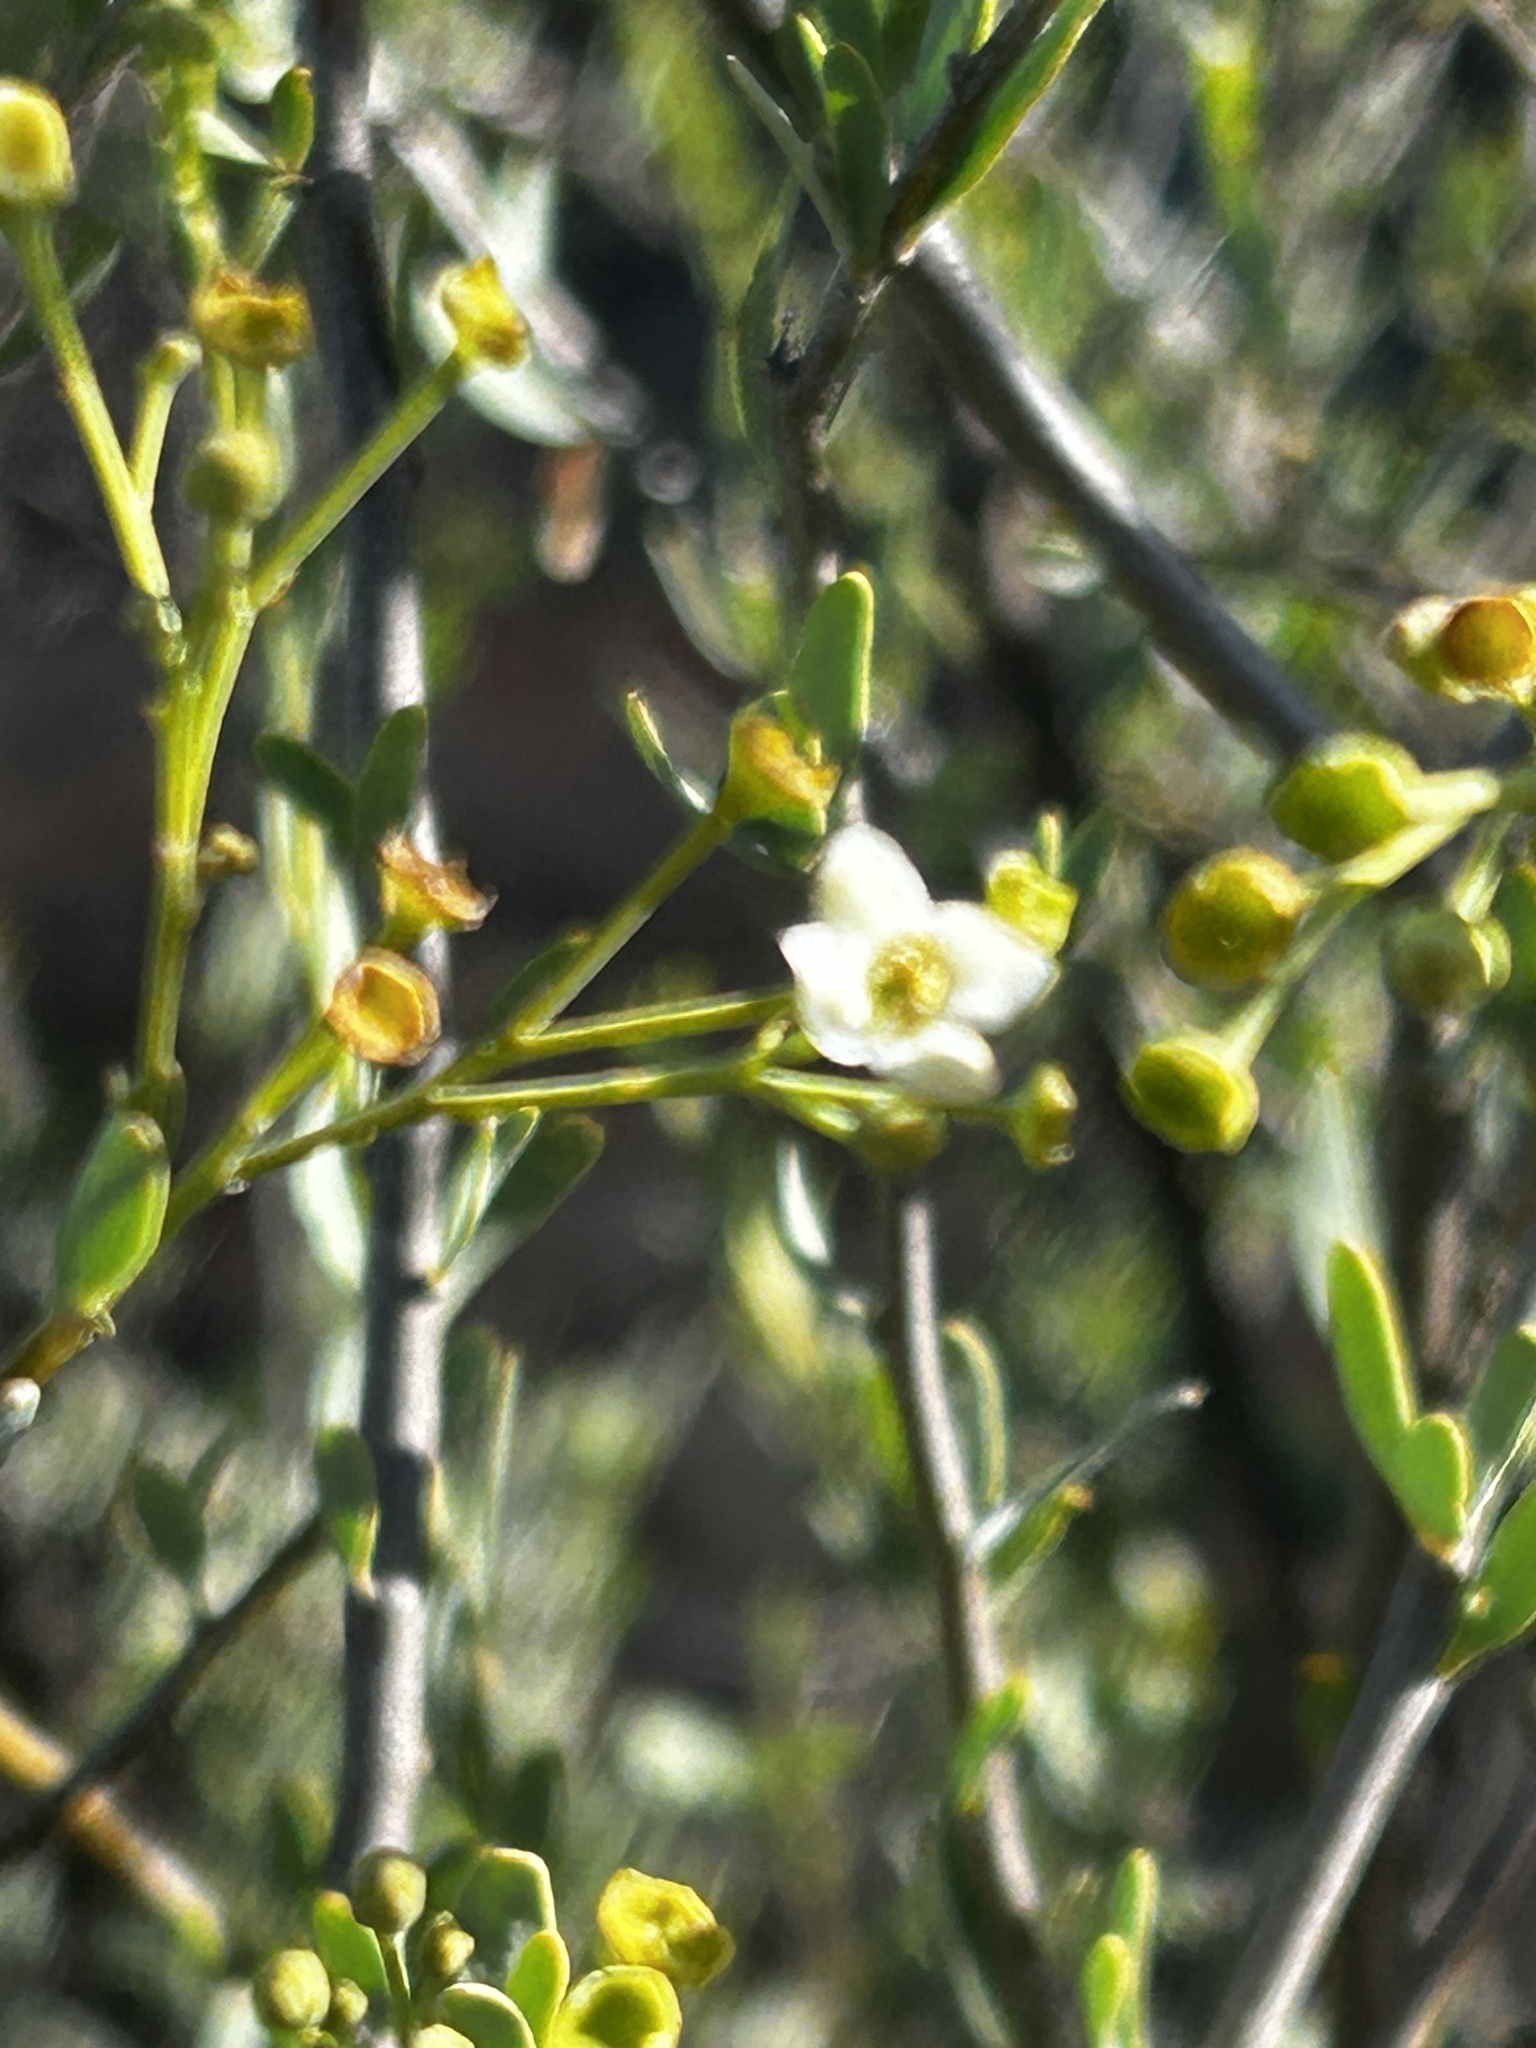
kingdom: Plantae
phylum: Tracheophyta
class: Magnoliopsida
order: Solanales
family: Montiniaceae
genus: Montinia
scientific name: Montinia caryophyllacea
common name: Wild clove-bush
